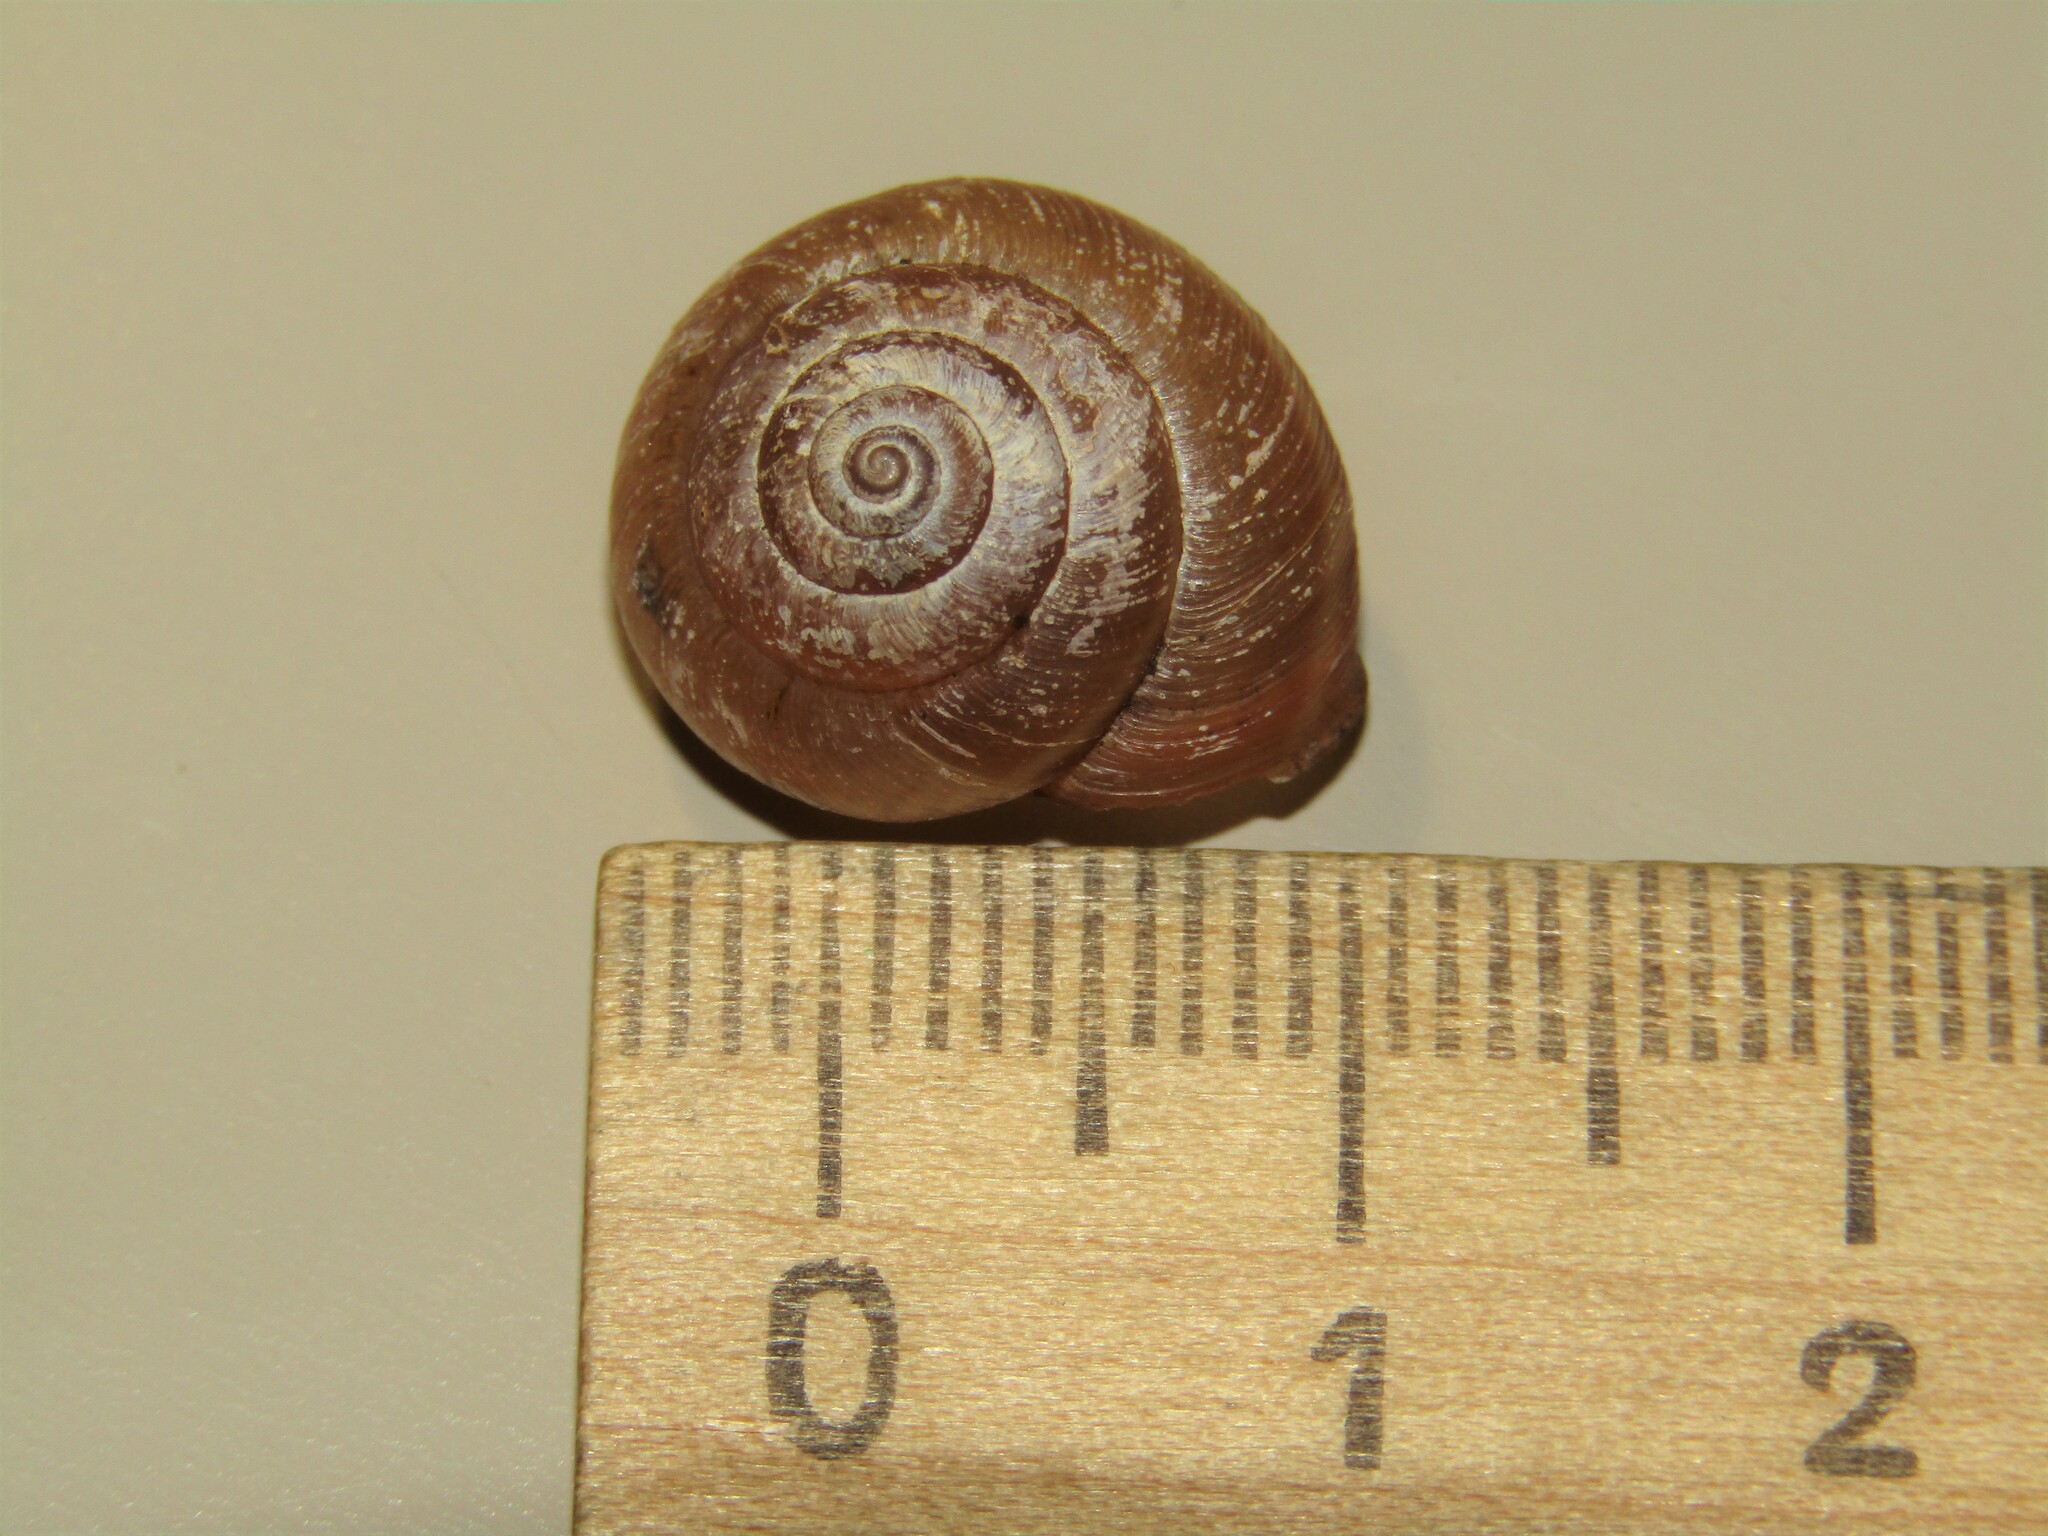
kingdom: Animalia
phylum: Mollusca
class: Gastropoda
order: Stylommatophora
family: Hygromiidae
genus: Euomphalia
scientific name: Euomphalia strigella
